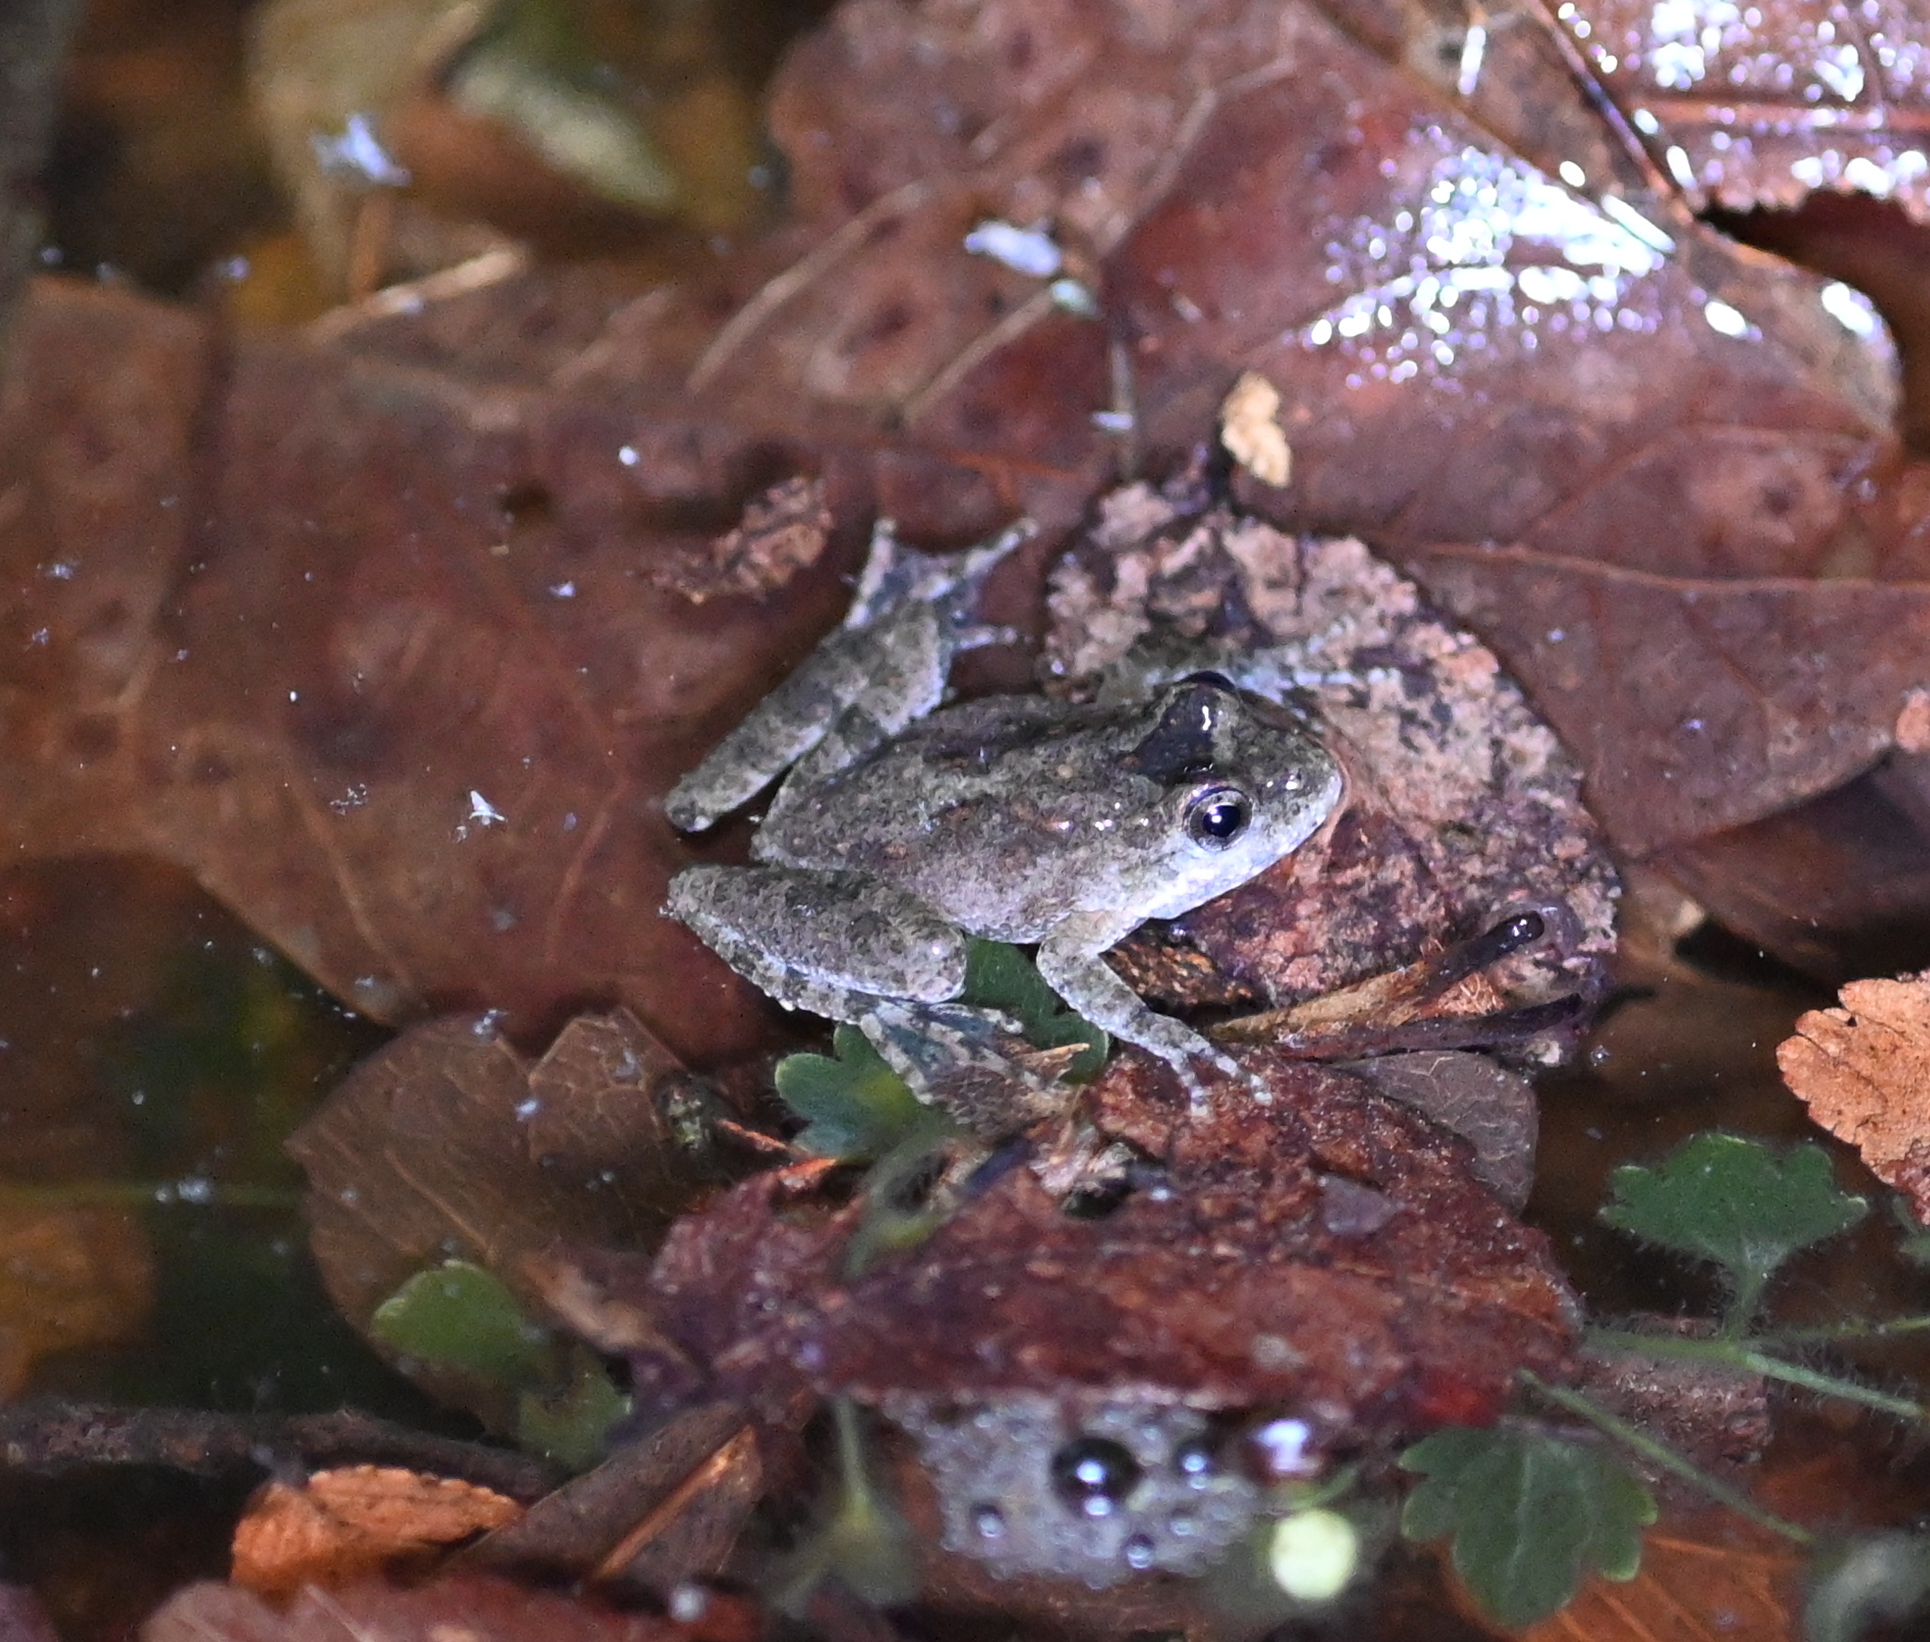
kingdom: Animalia
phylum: Chordata
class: Amphibia
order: Anura
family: Hylidae
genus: Acris
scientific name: Acris blanchardi
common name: Blanchard's cricket frog
